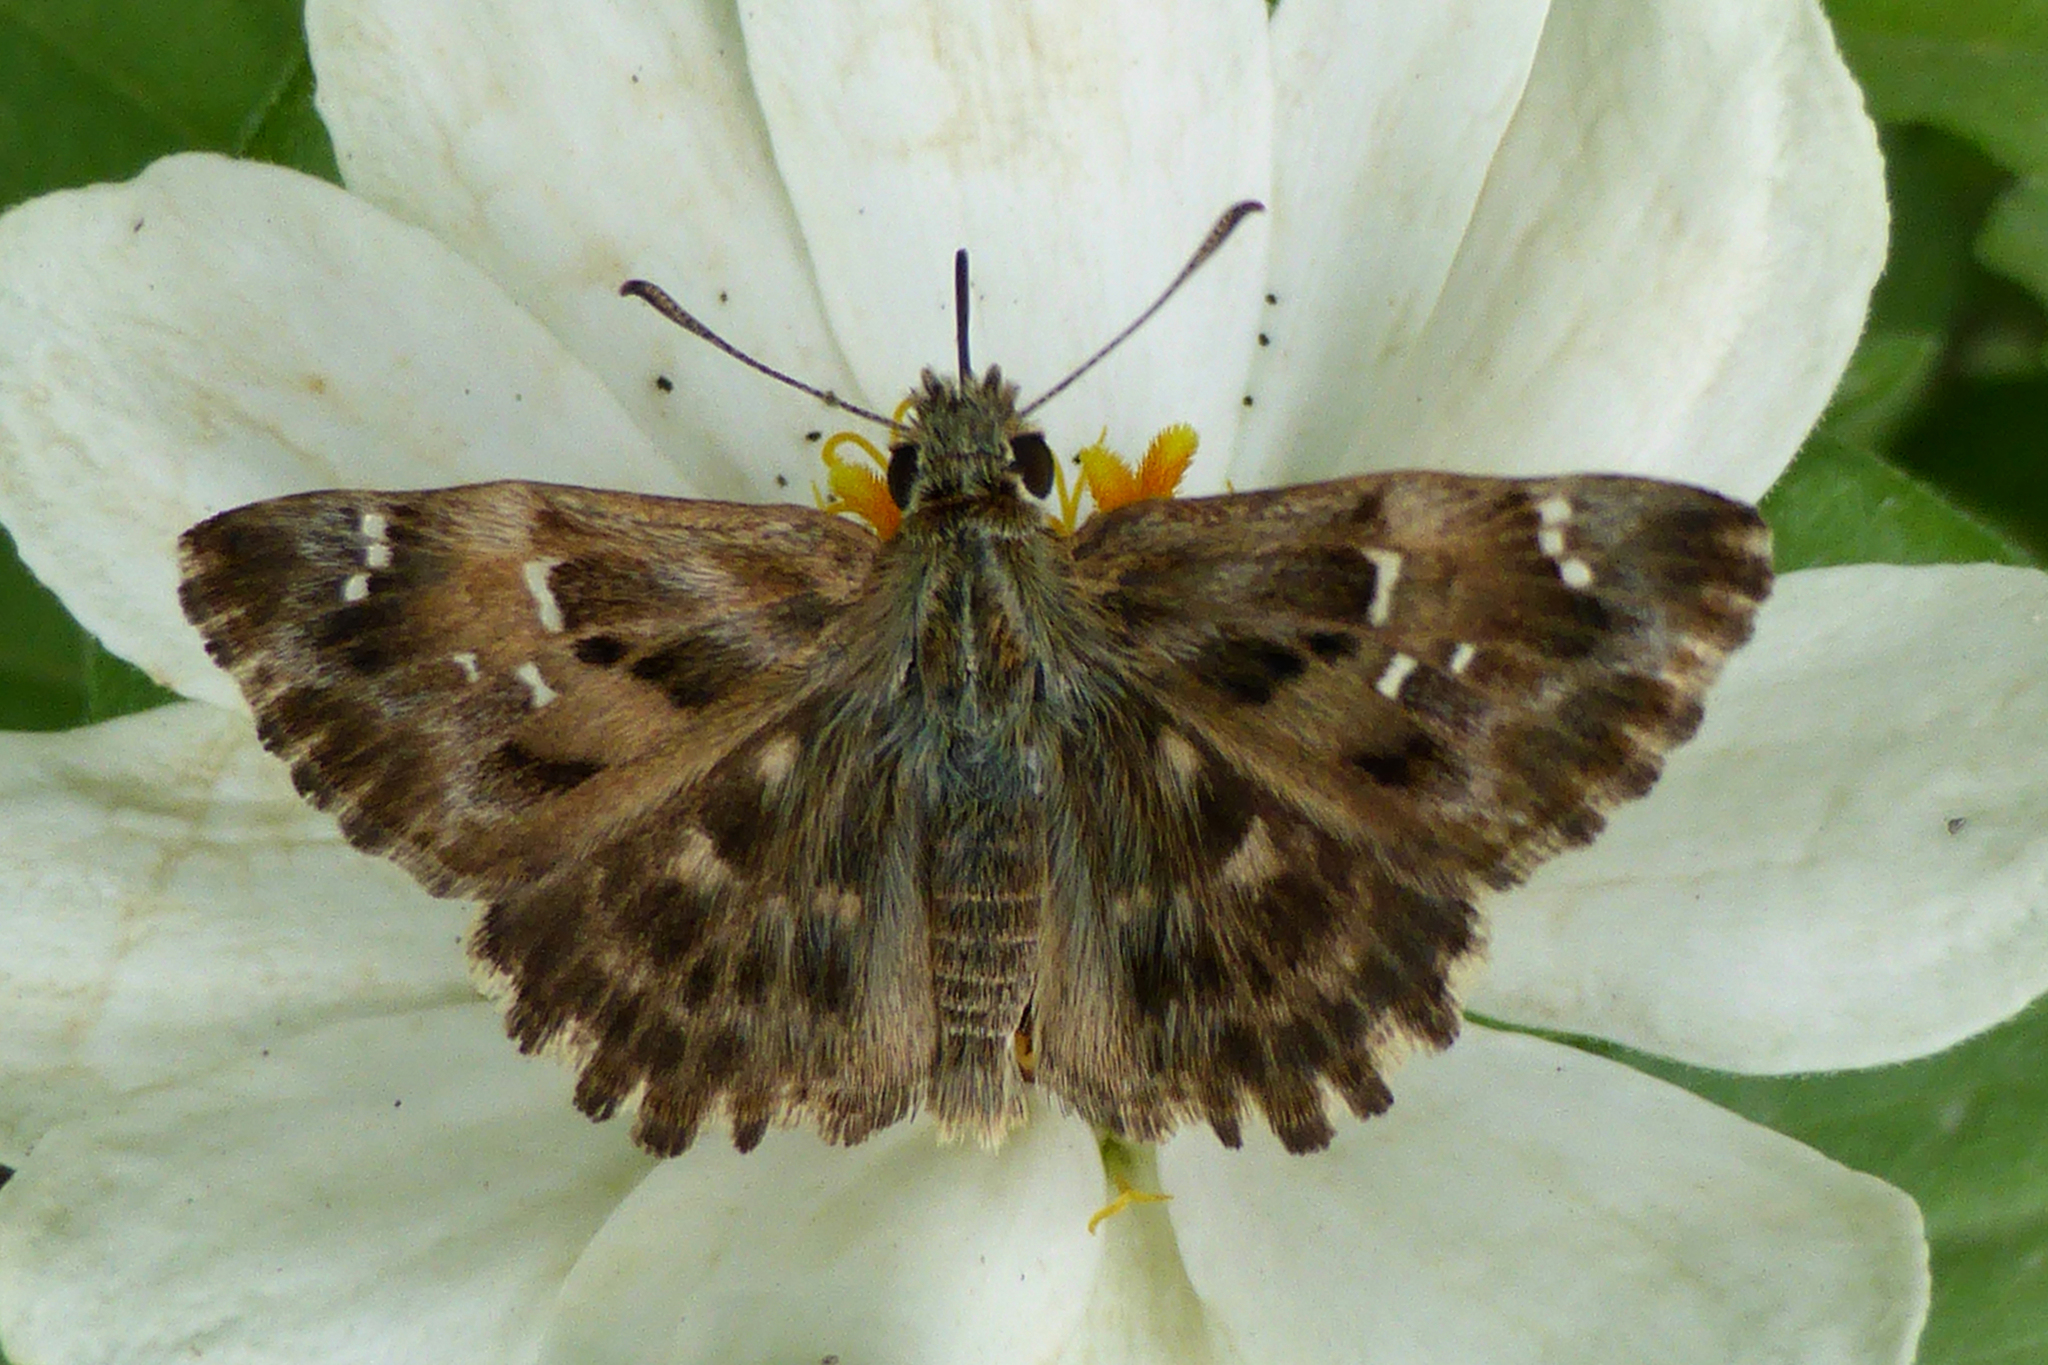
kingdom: Animalia
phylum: Arthropoda
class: Insecta
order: Lepidoptera
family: Hesperiidae
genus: Carcharodus
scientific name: Carcharodus alceae
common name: Mallow skipper
